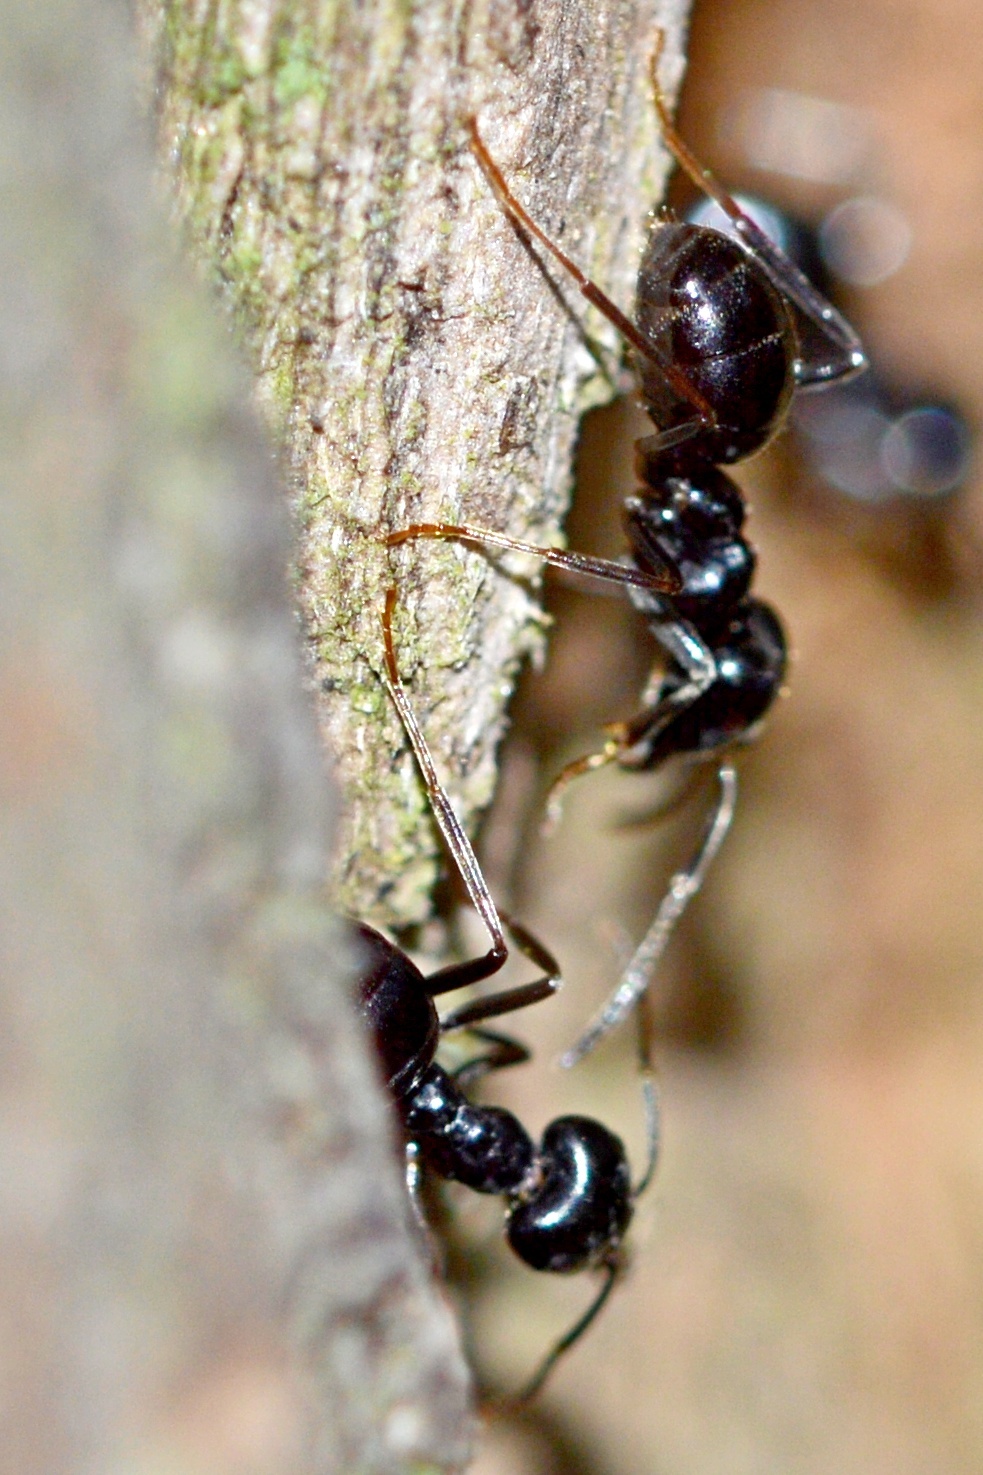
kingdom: Animalia
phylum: Arthropoda
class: Insecta
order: Hymenoptera
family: Formicidae
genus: Lasius
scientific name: Lasius fuliginosus
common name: Jet ant
